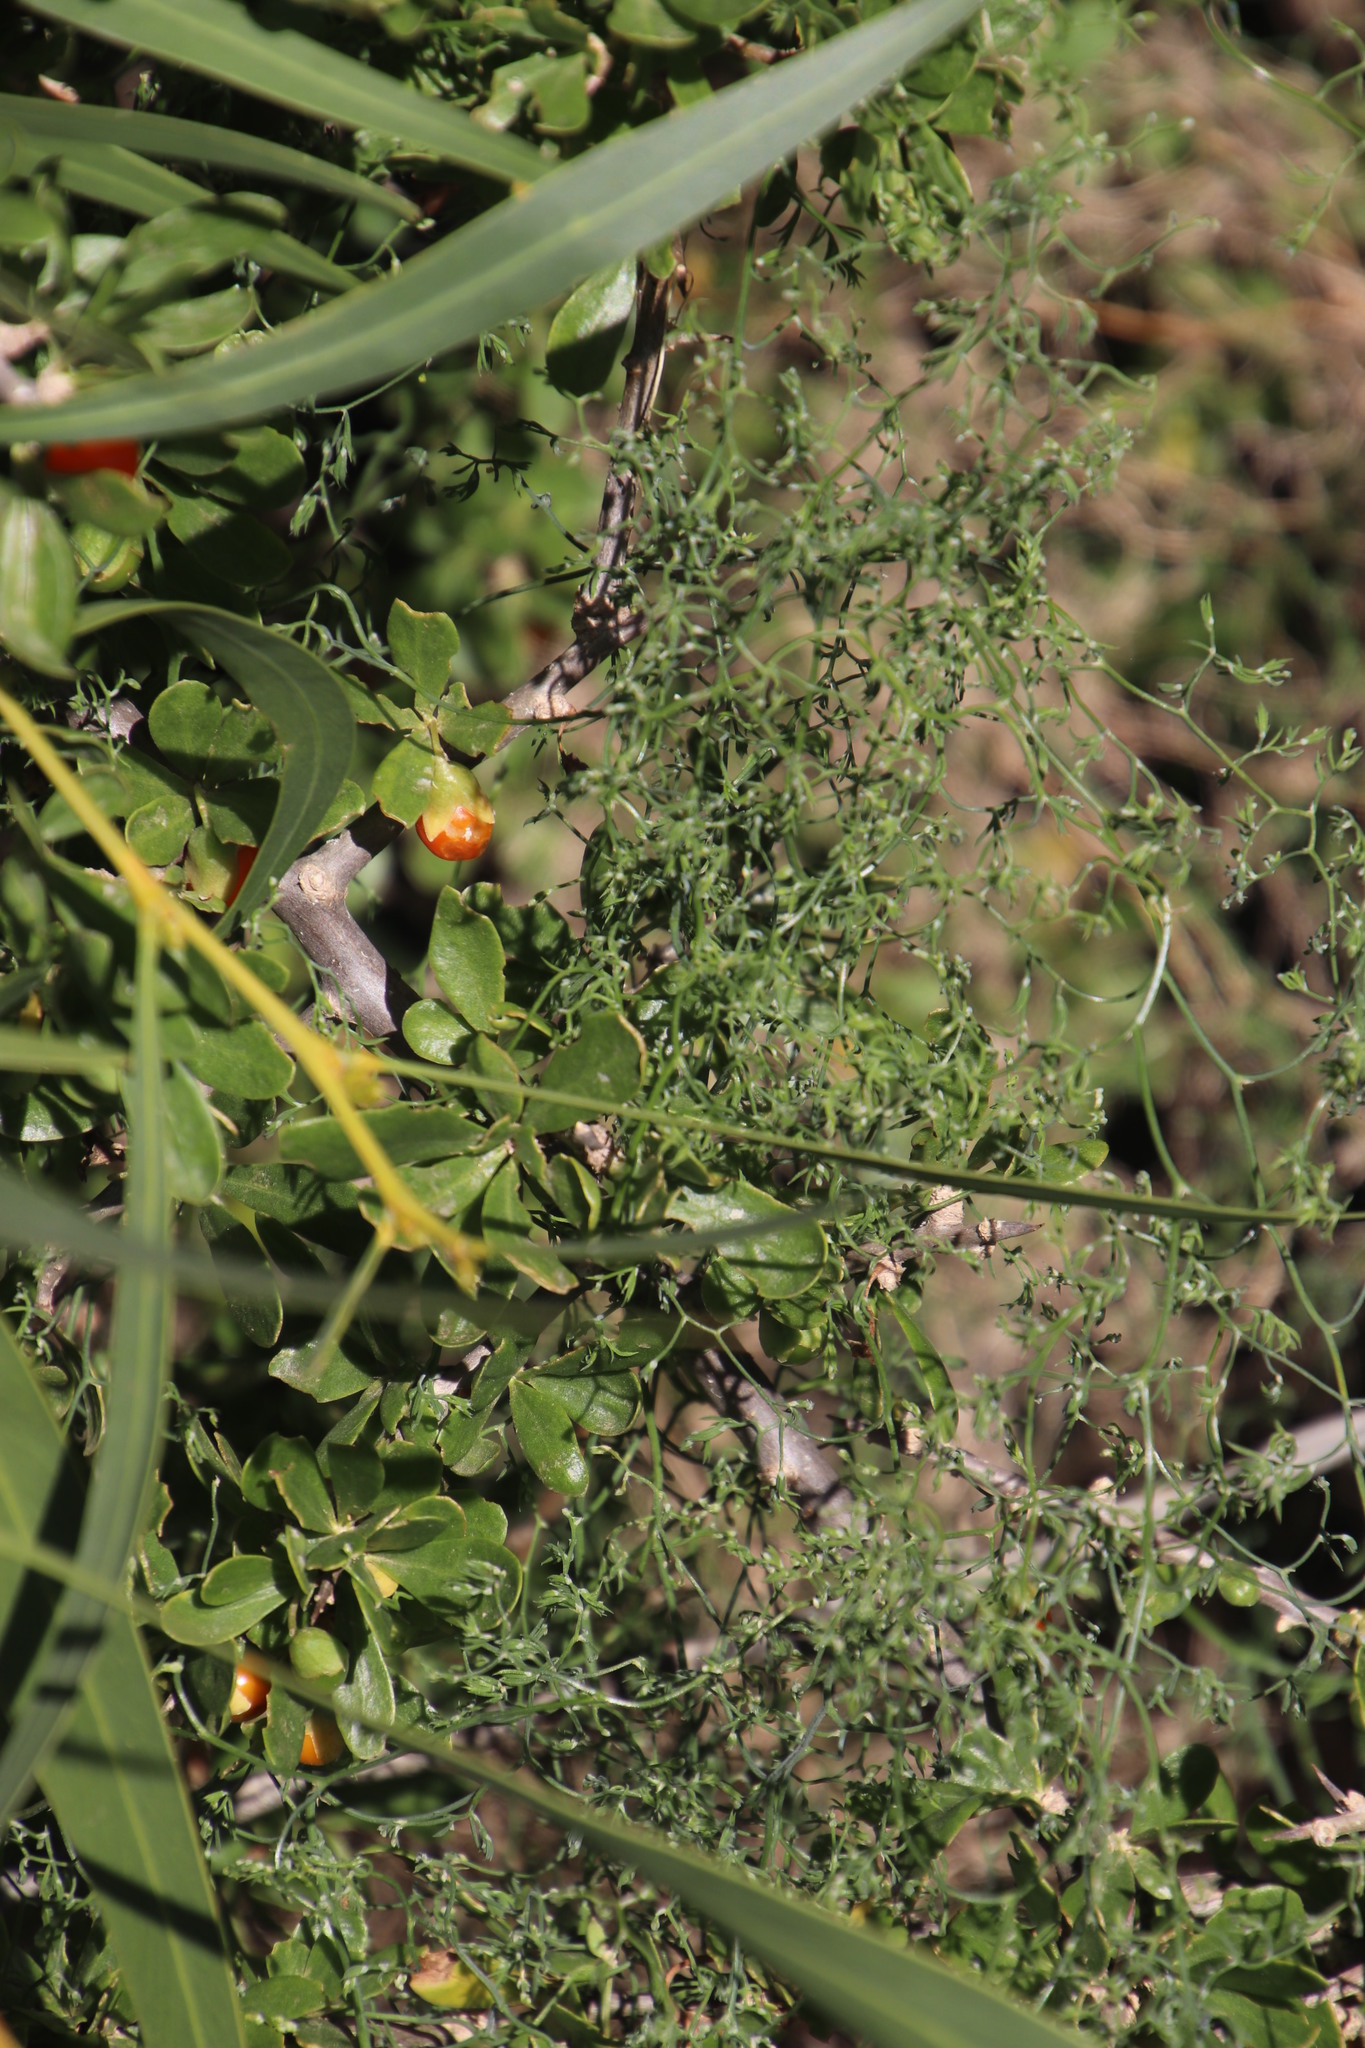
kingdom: Plantae
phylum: Tracheophyta
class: Liliopsida
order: Asparagales
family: Asparagaceae
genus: Asparagus
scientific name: Asparagus declinatus
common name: Bridal-creeper
